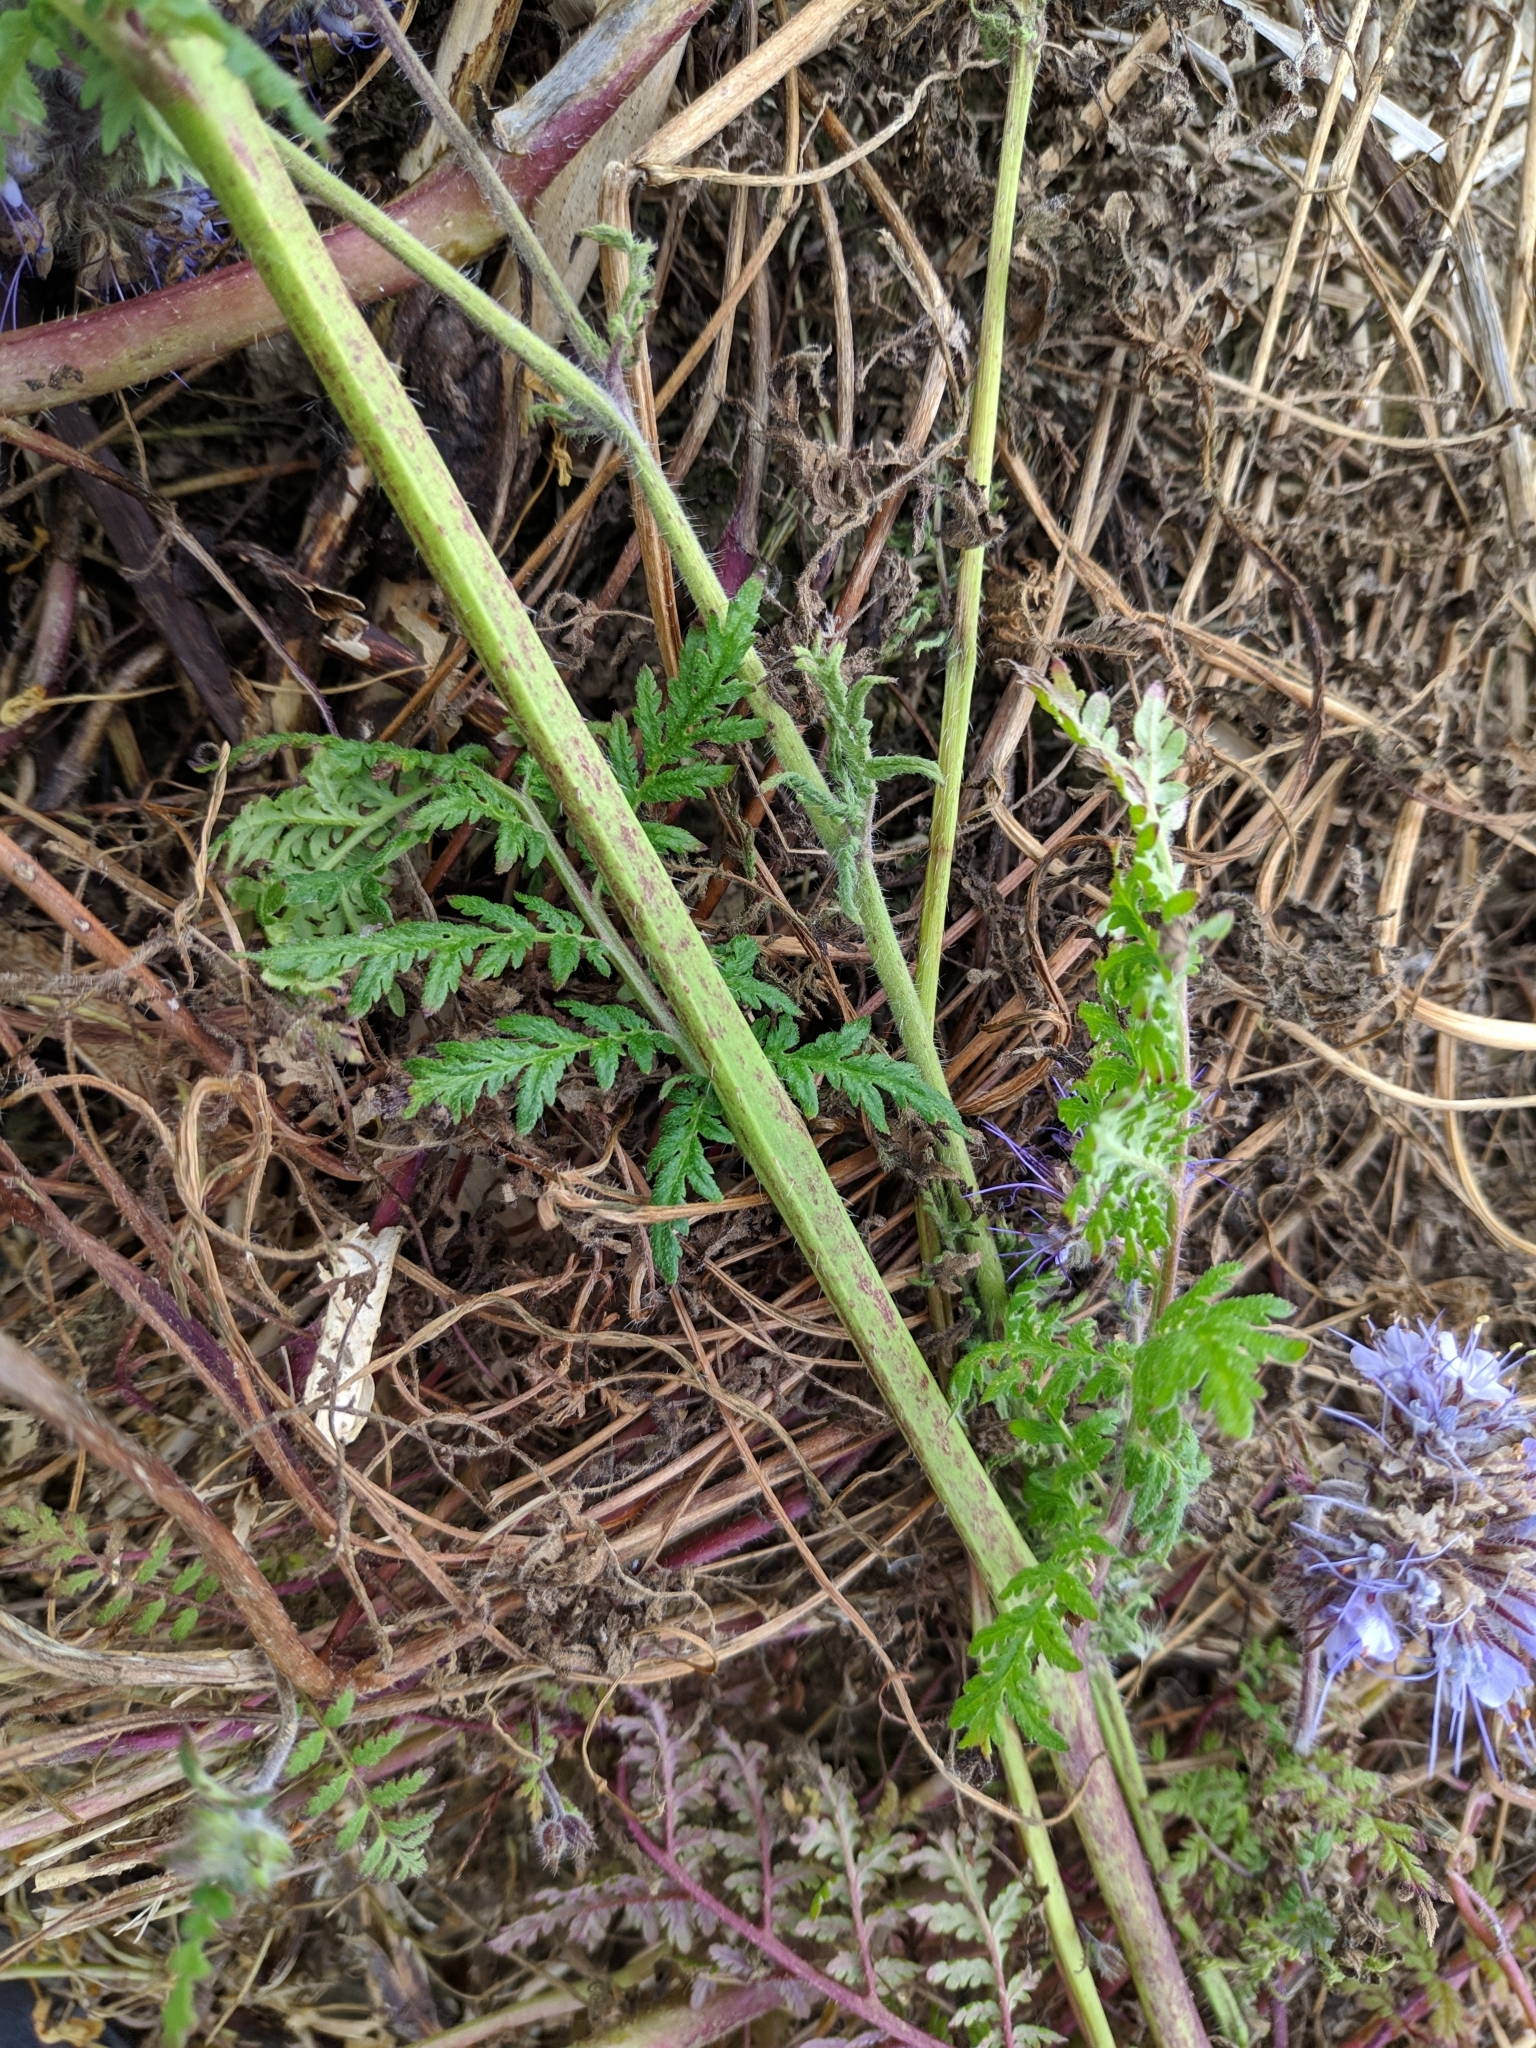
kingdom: Plantae
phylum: Tracheophyta
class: Magnoliopsida
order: Boraginales
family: Hydrophyllaceae
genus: Phacelia
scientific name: Phacelia tanacetifolia
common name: Phacelia
